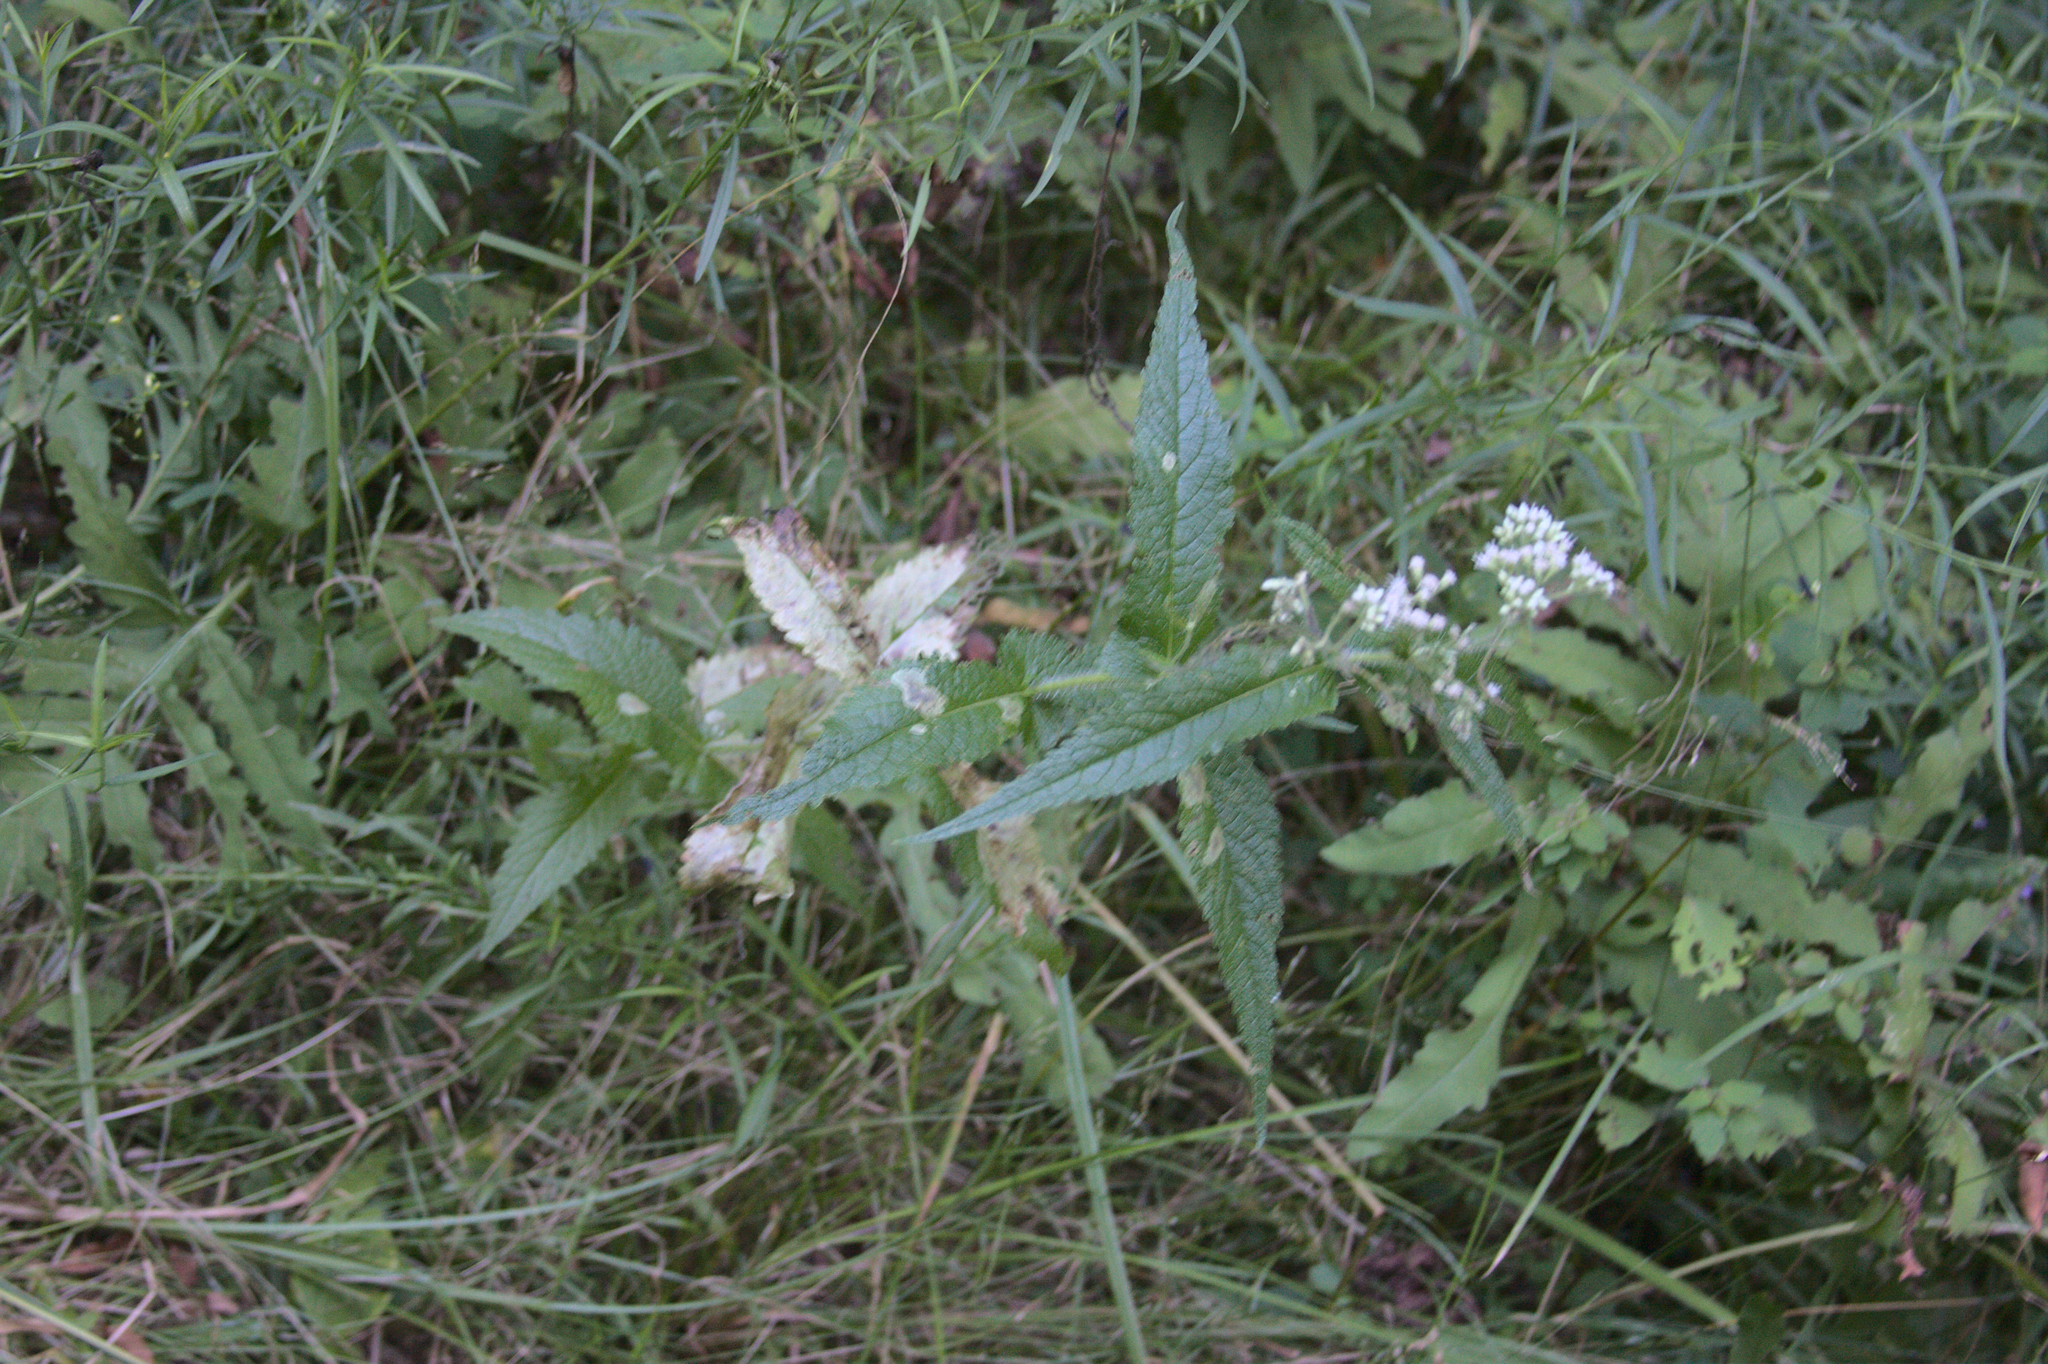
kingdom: Plantae
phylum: Tracheophyta
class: Magnoliopsida
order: Asterales
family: Asteraceae
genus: Eupatorium
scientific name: Eupatorium perfoliatum
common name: Boneset
